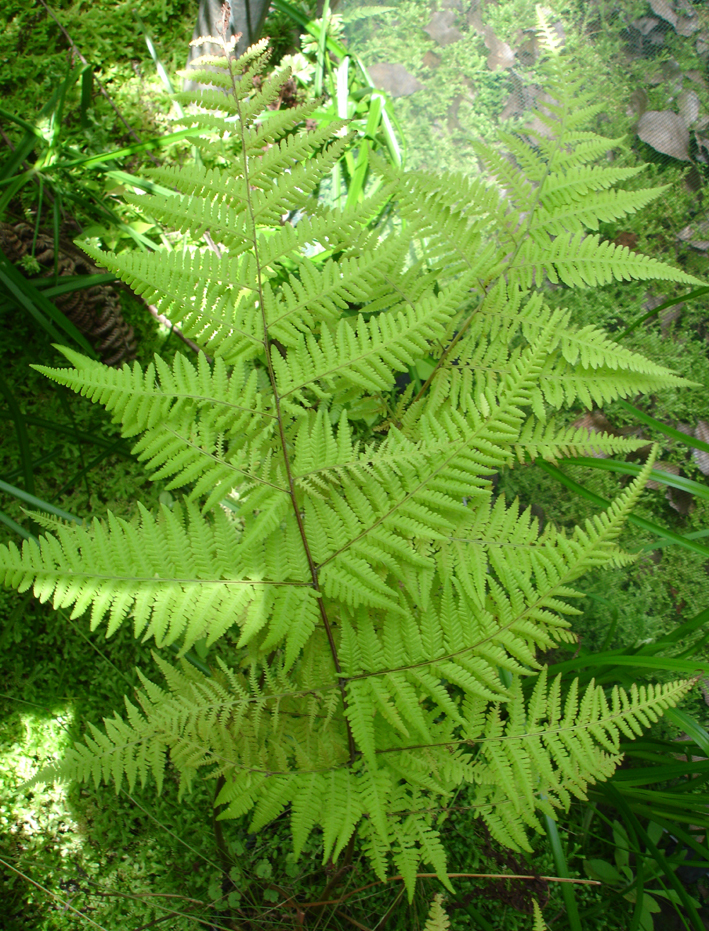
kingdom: Plantae
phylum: Tracheophyta
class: Polypodiopsida
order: Polypodiales
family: Thelypteridaceae
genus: Macrothelypteris
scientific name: Macrothelypteris torresiana
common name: Swordfern
